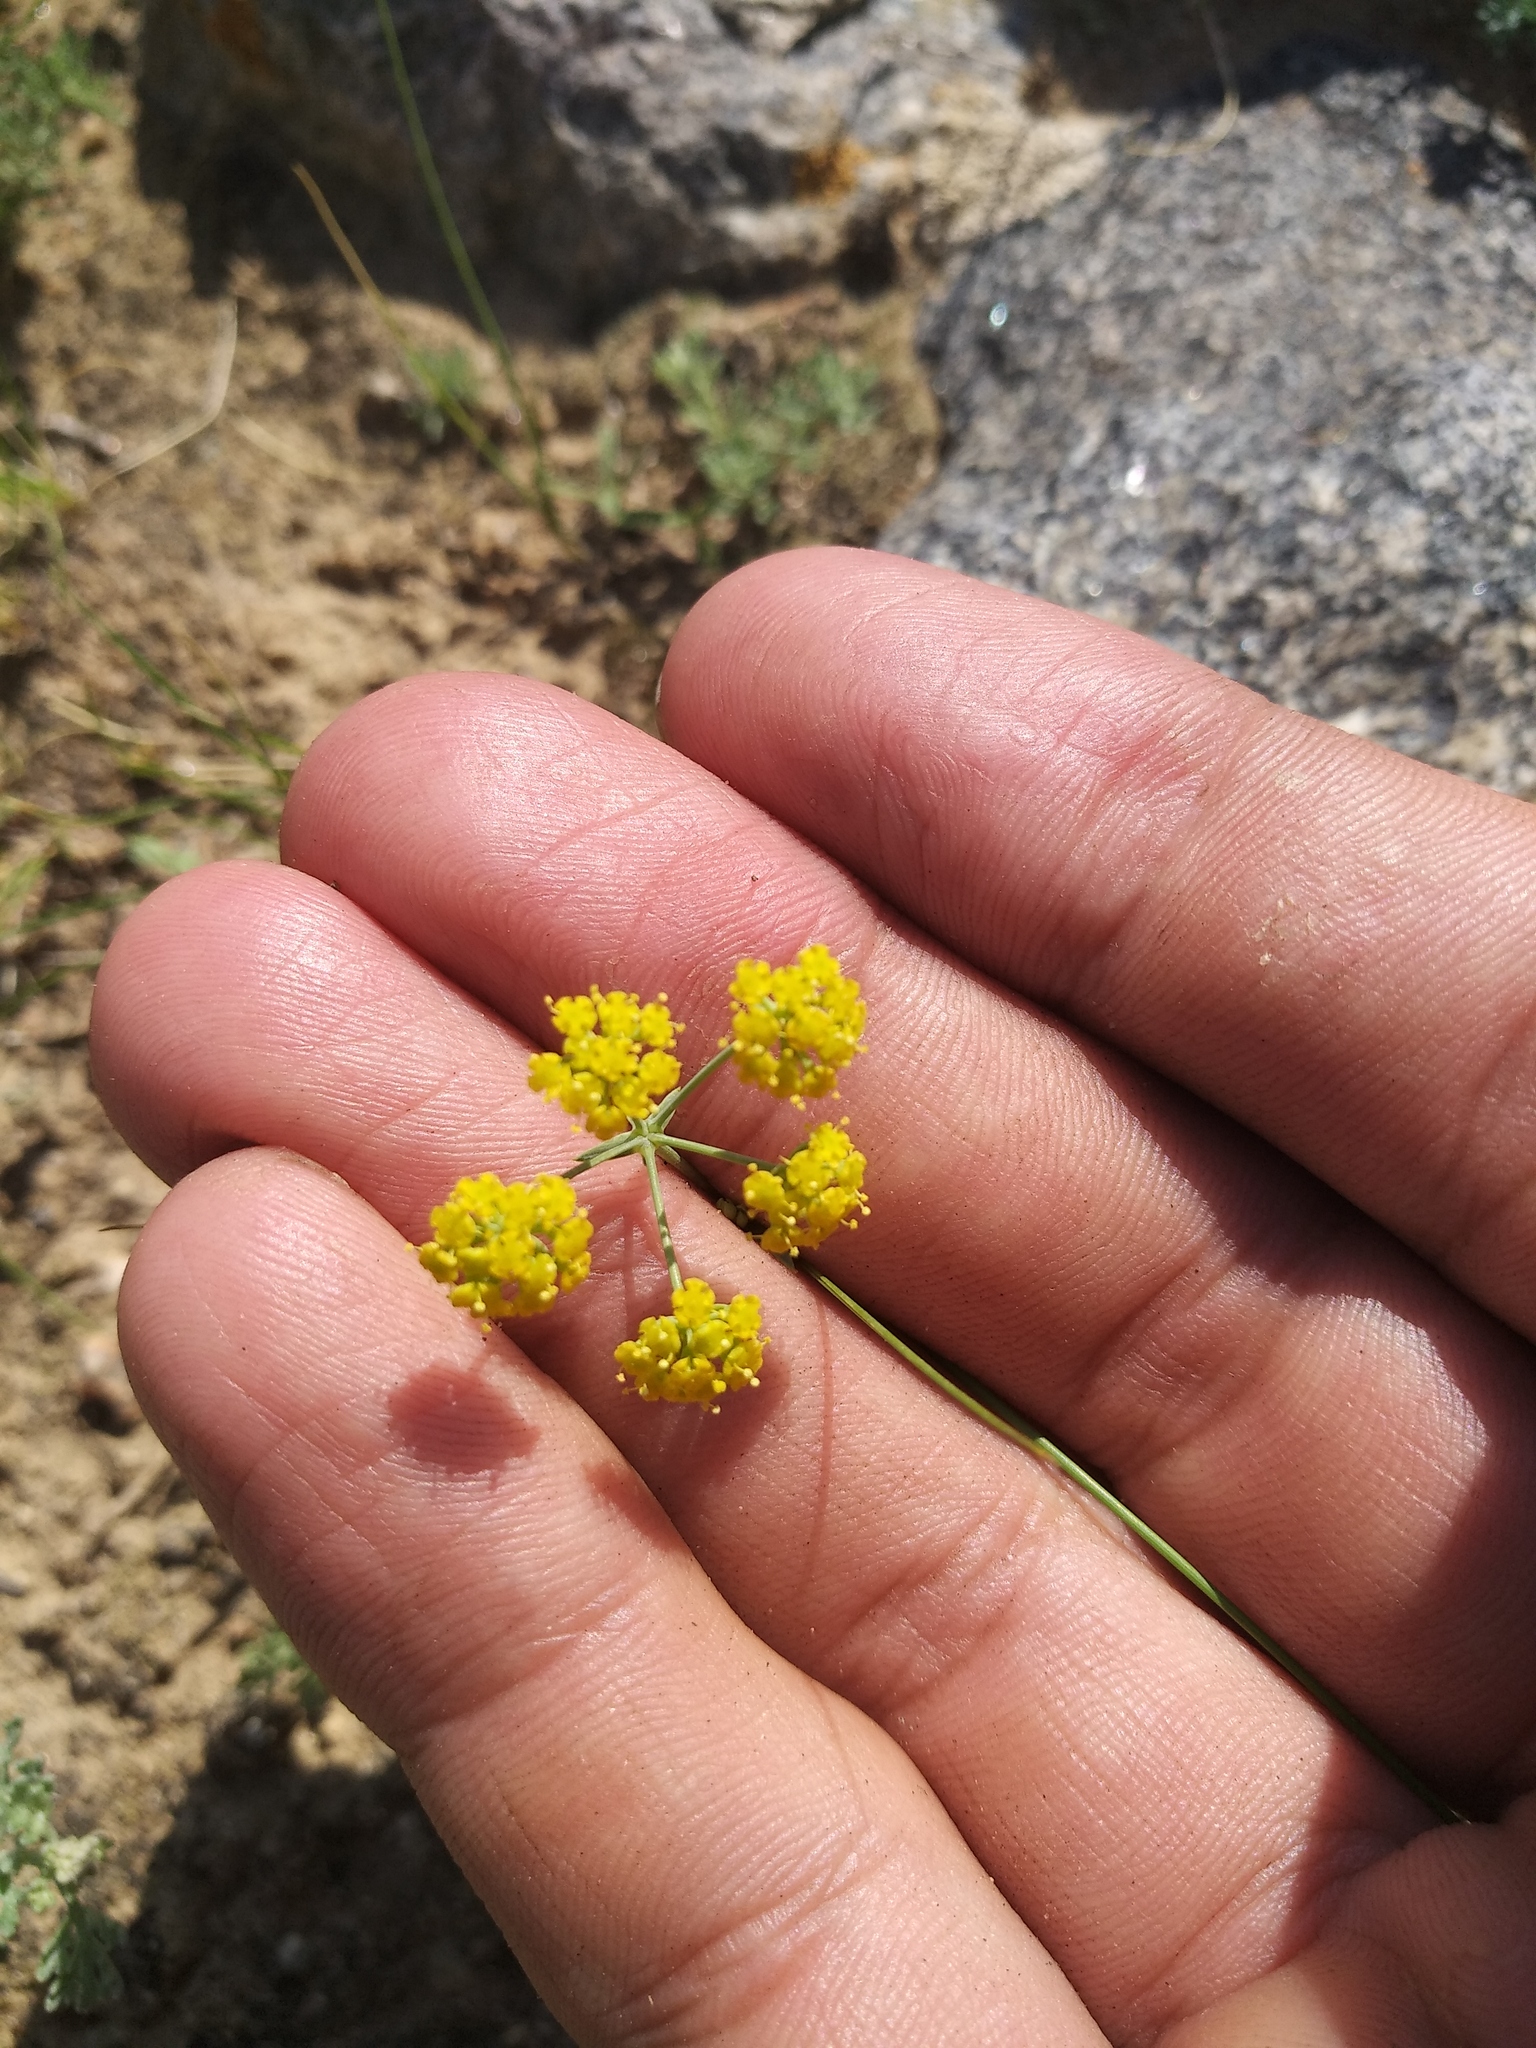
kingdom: Plantae
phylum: Tracheophyta
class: Magnoliopsida
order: Apiales
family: Apiaceae
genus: Bupleurum
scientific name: Bupleurum bicaule
